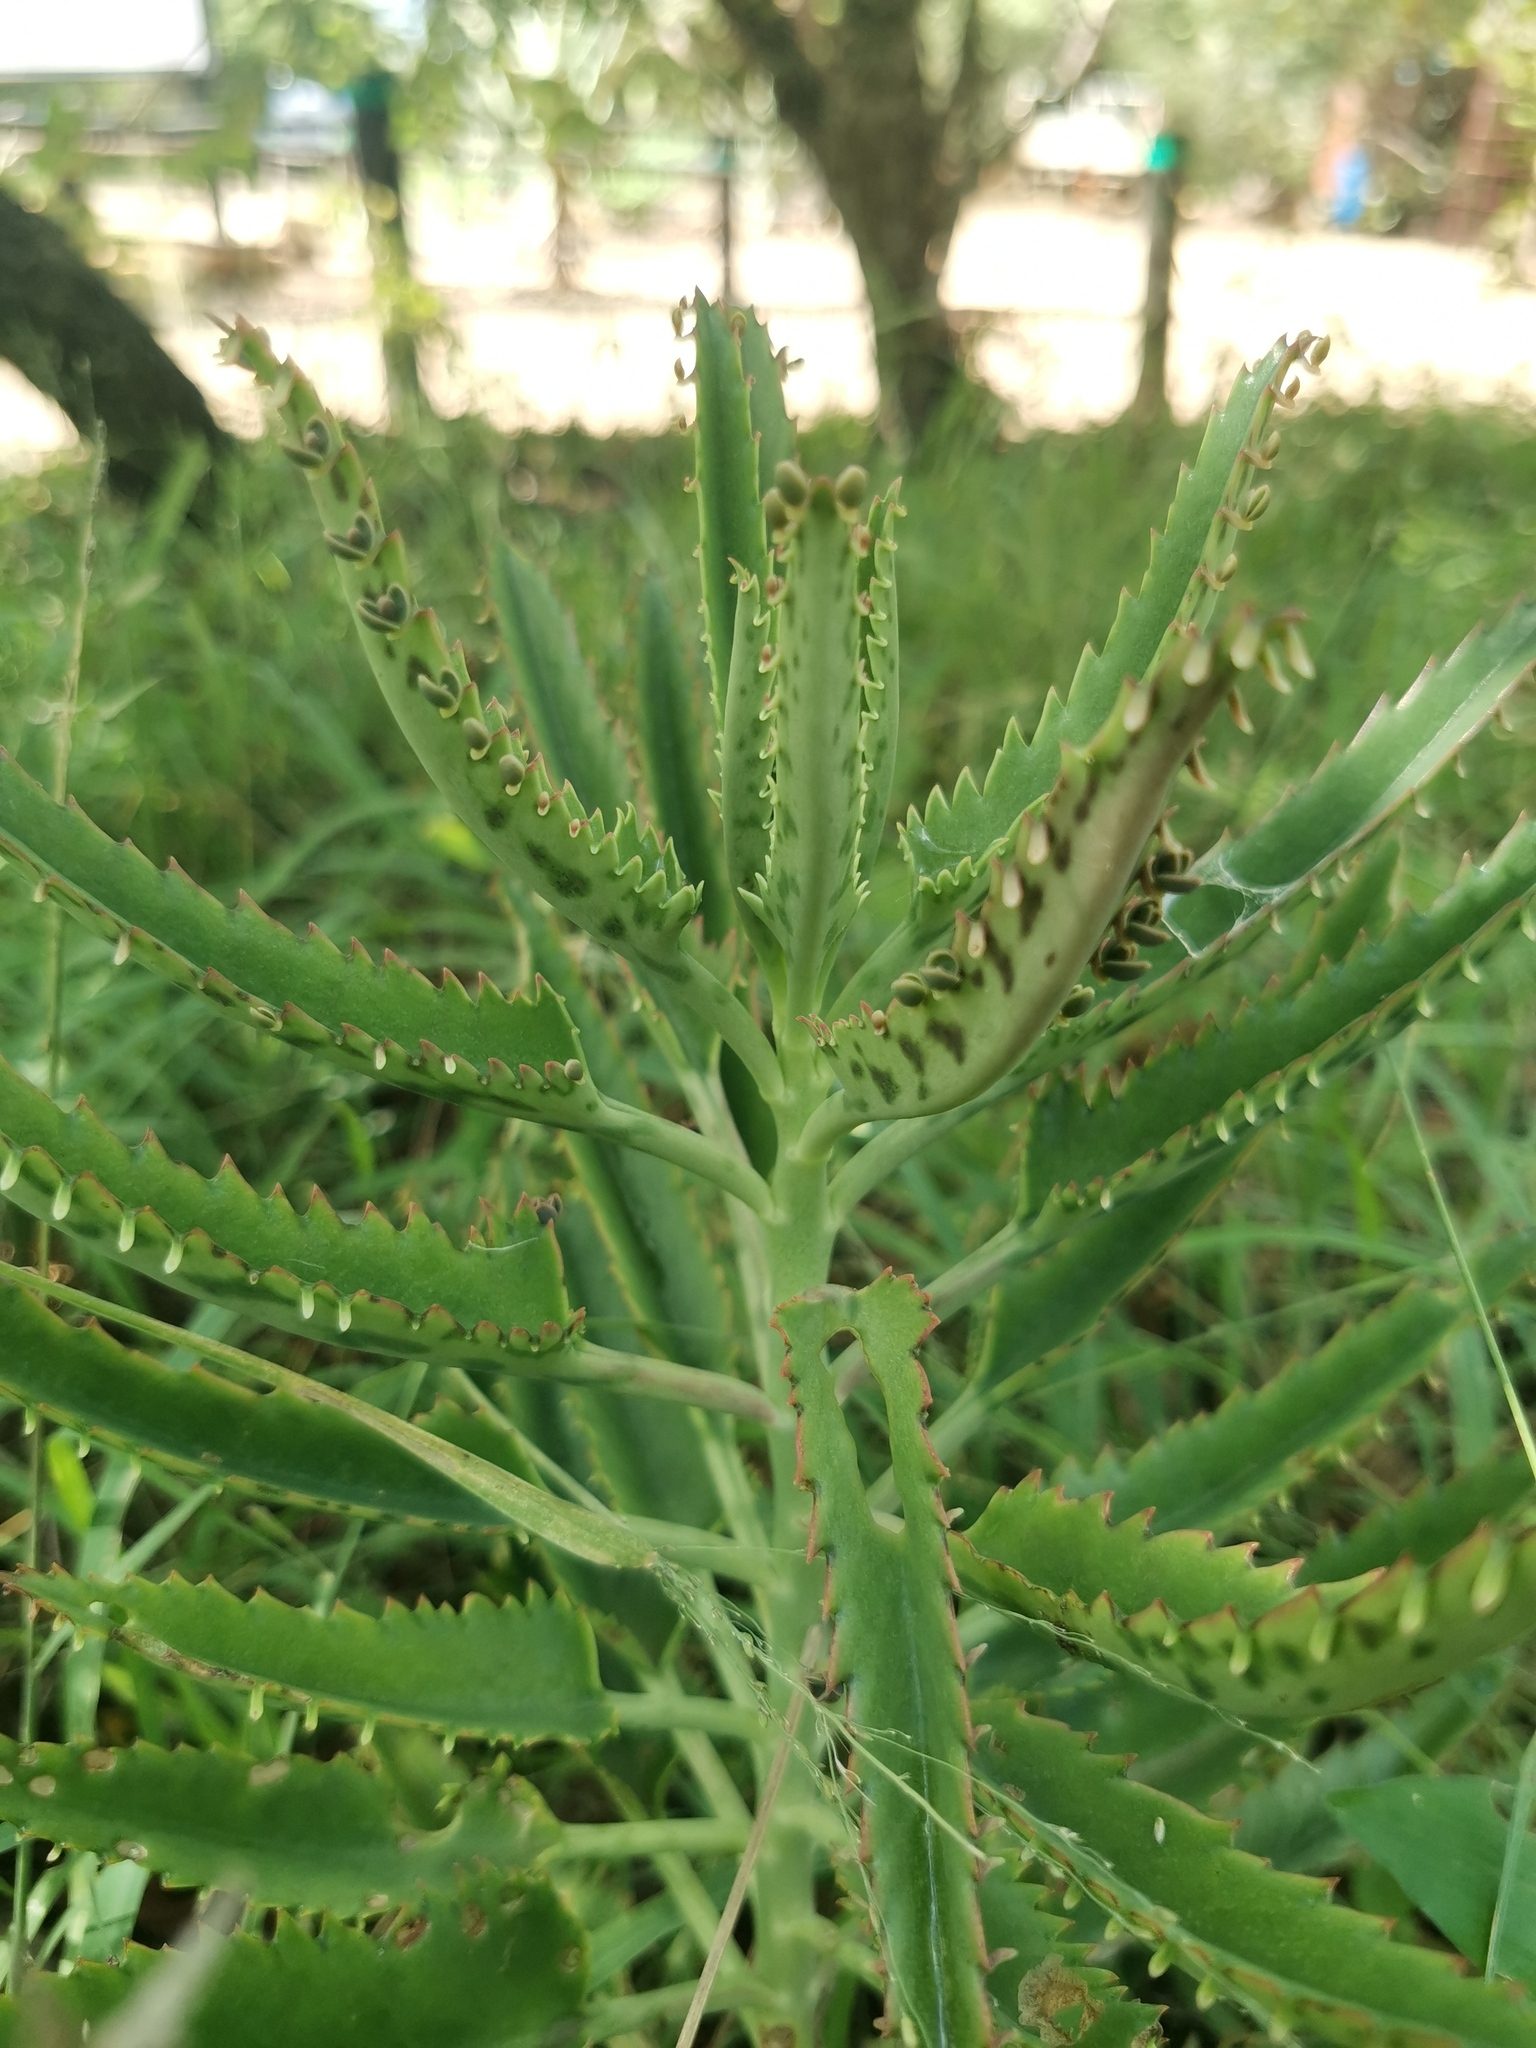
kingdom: Plantae
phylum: Tracheophyta
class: Magnoliopsida
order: Saxifragales
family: Crassulaceae
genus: Kalanchoe
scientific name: Kalanchoe houghtonii
